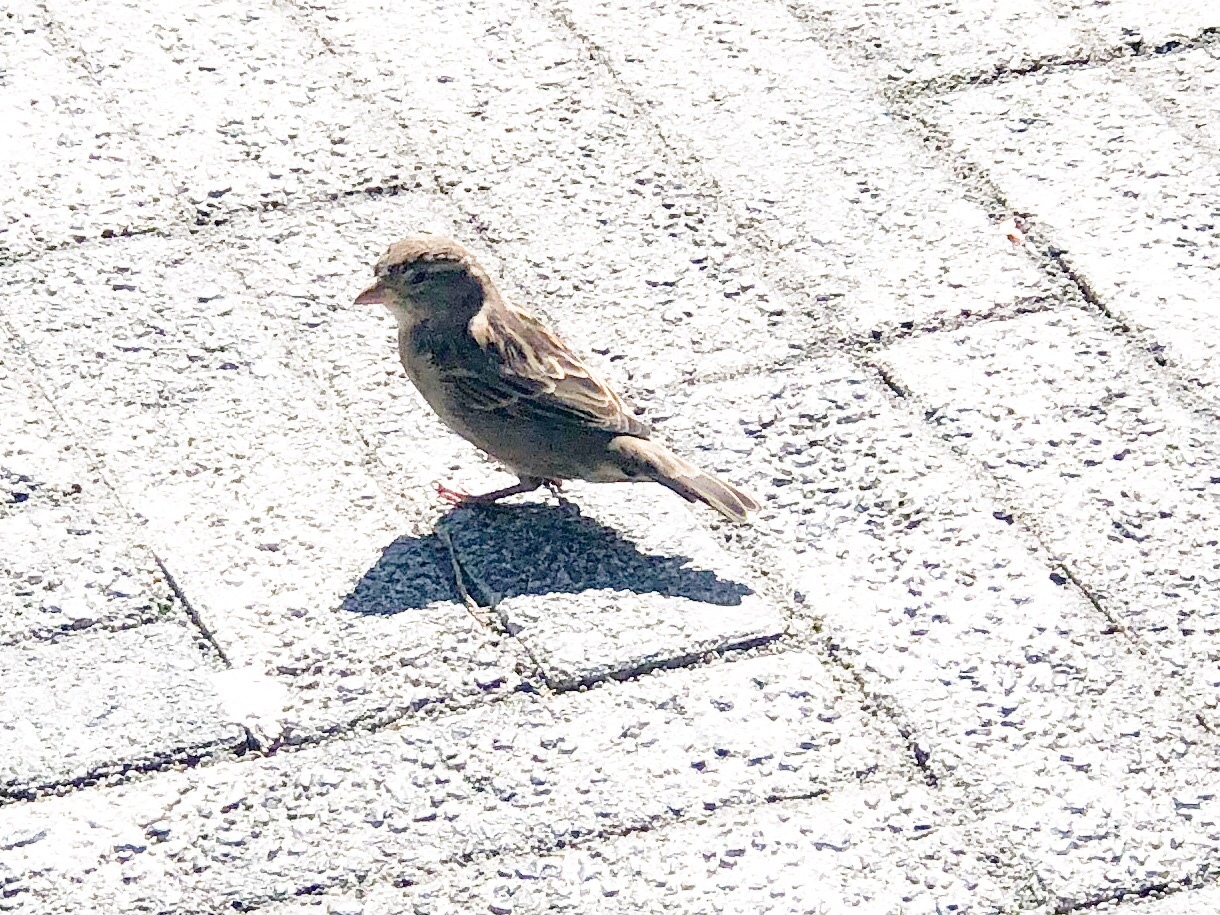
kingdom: Animalia
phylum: Chordata
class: Aves
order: Passeriformes
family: Passeridae
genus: Passer
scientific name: Passer domesticus
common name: House sparrow
